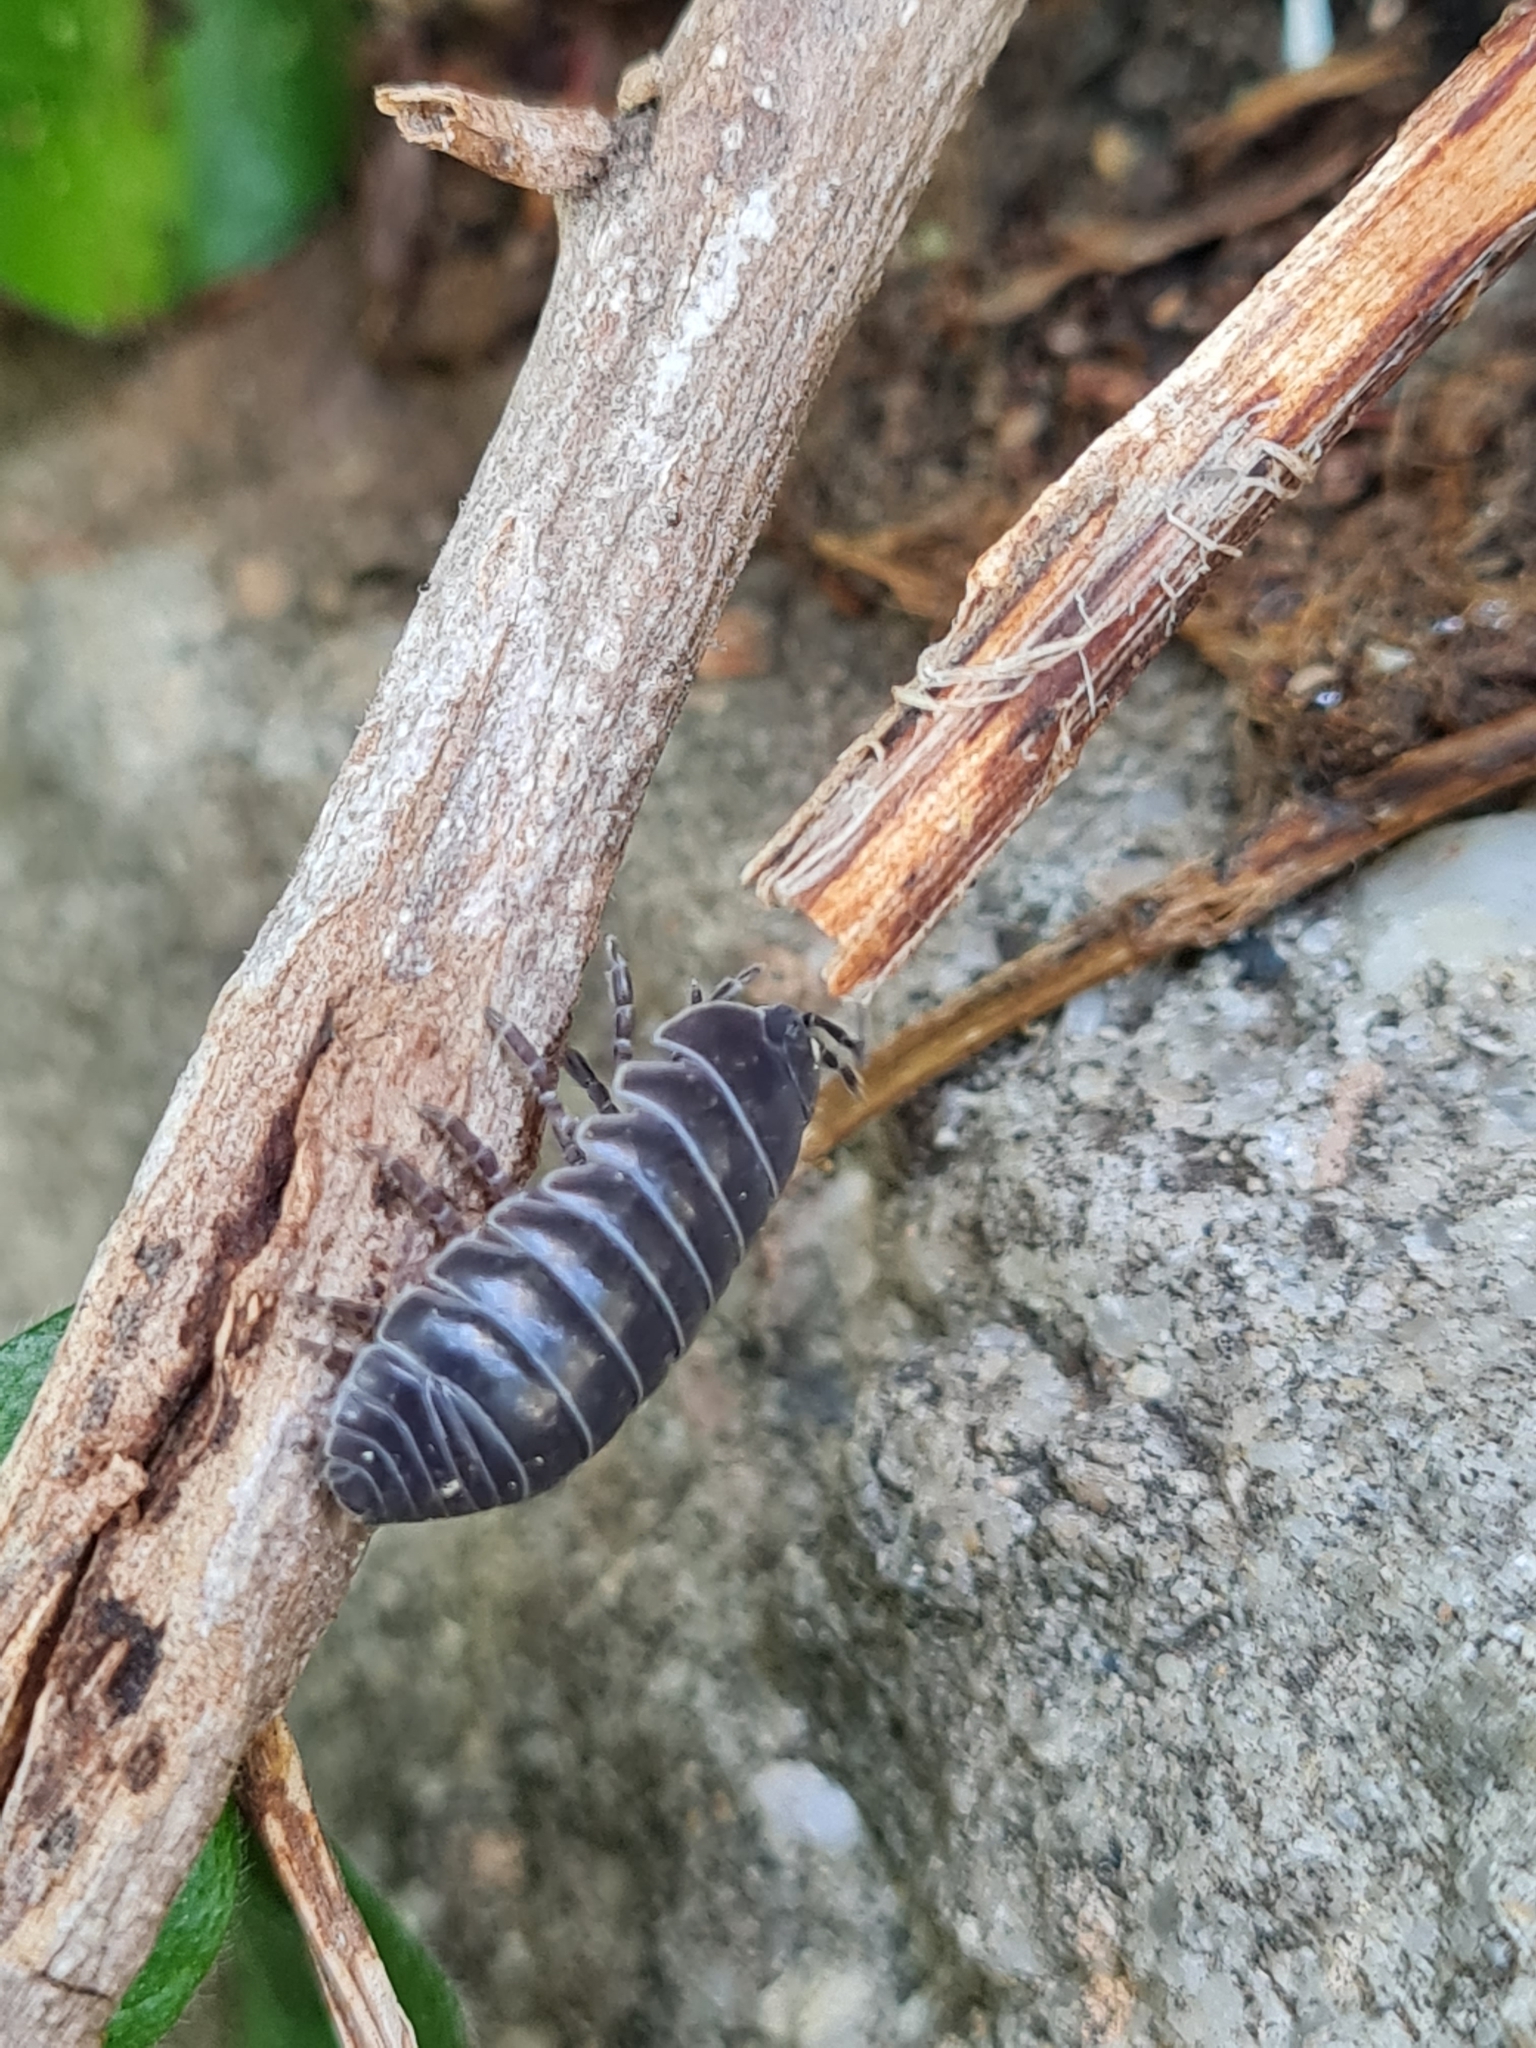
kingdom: Animalia
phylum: Arthropoda
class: Malacostraca
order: Isopoda
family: Armadillidiidae
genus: Armadillidium
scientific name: Armadillidium vulgare
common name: Common pill woodlouse
